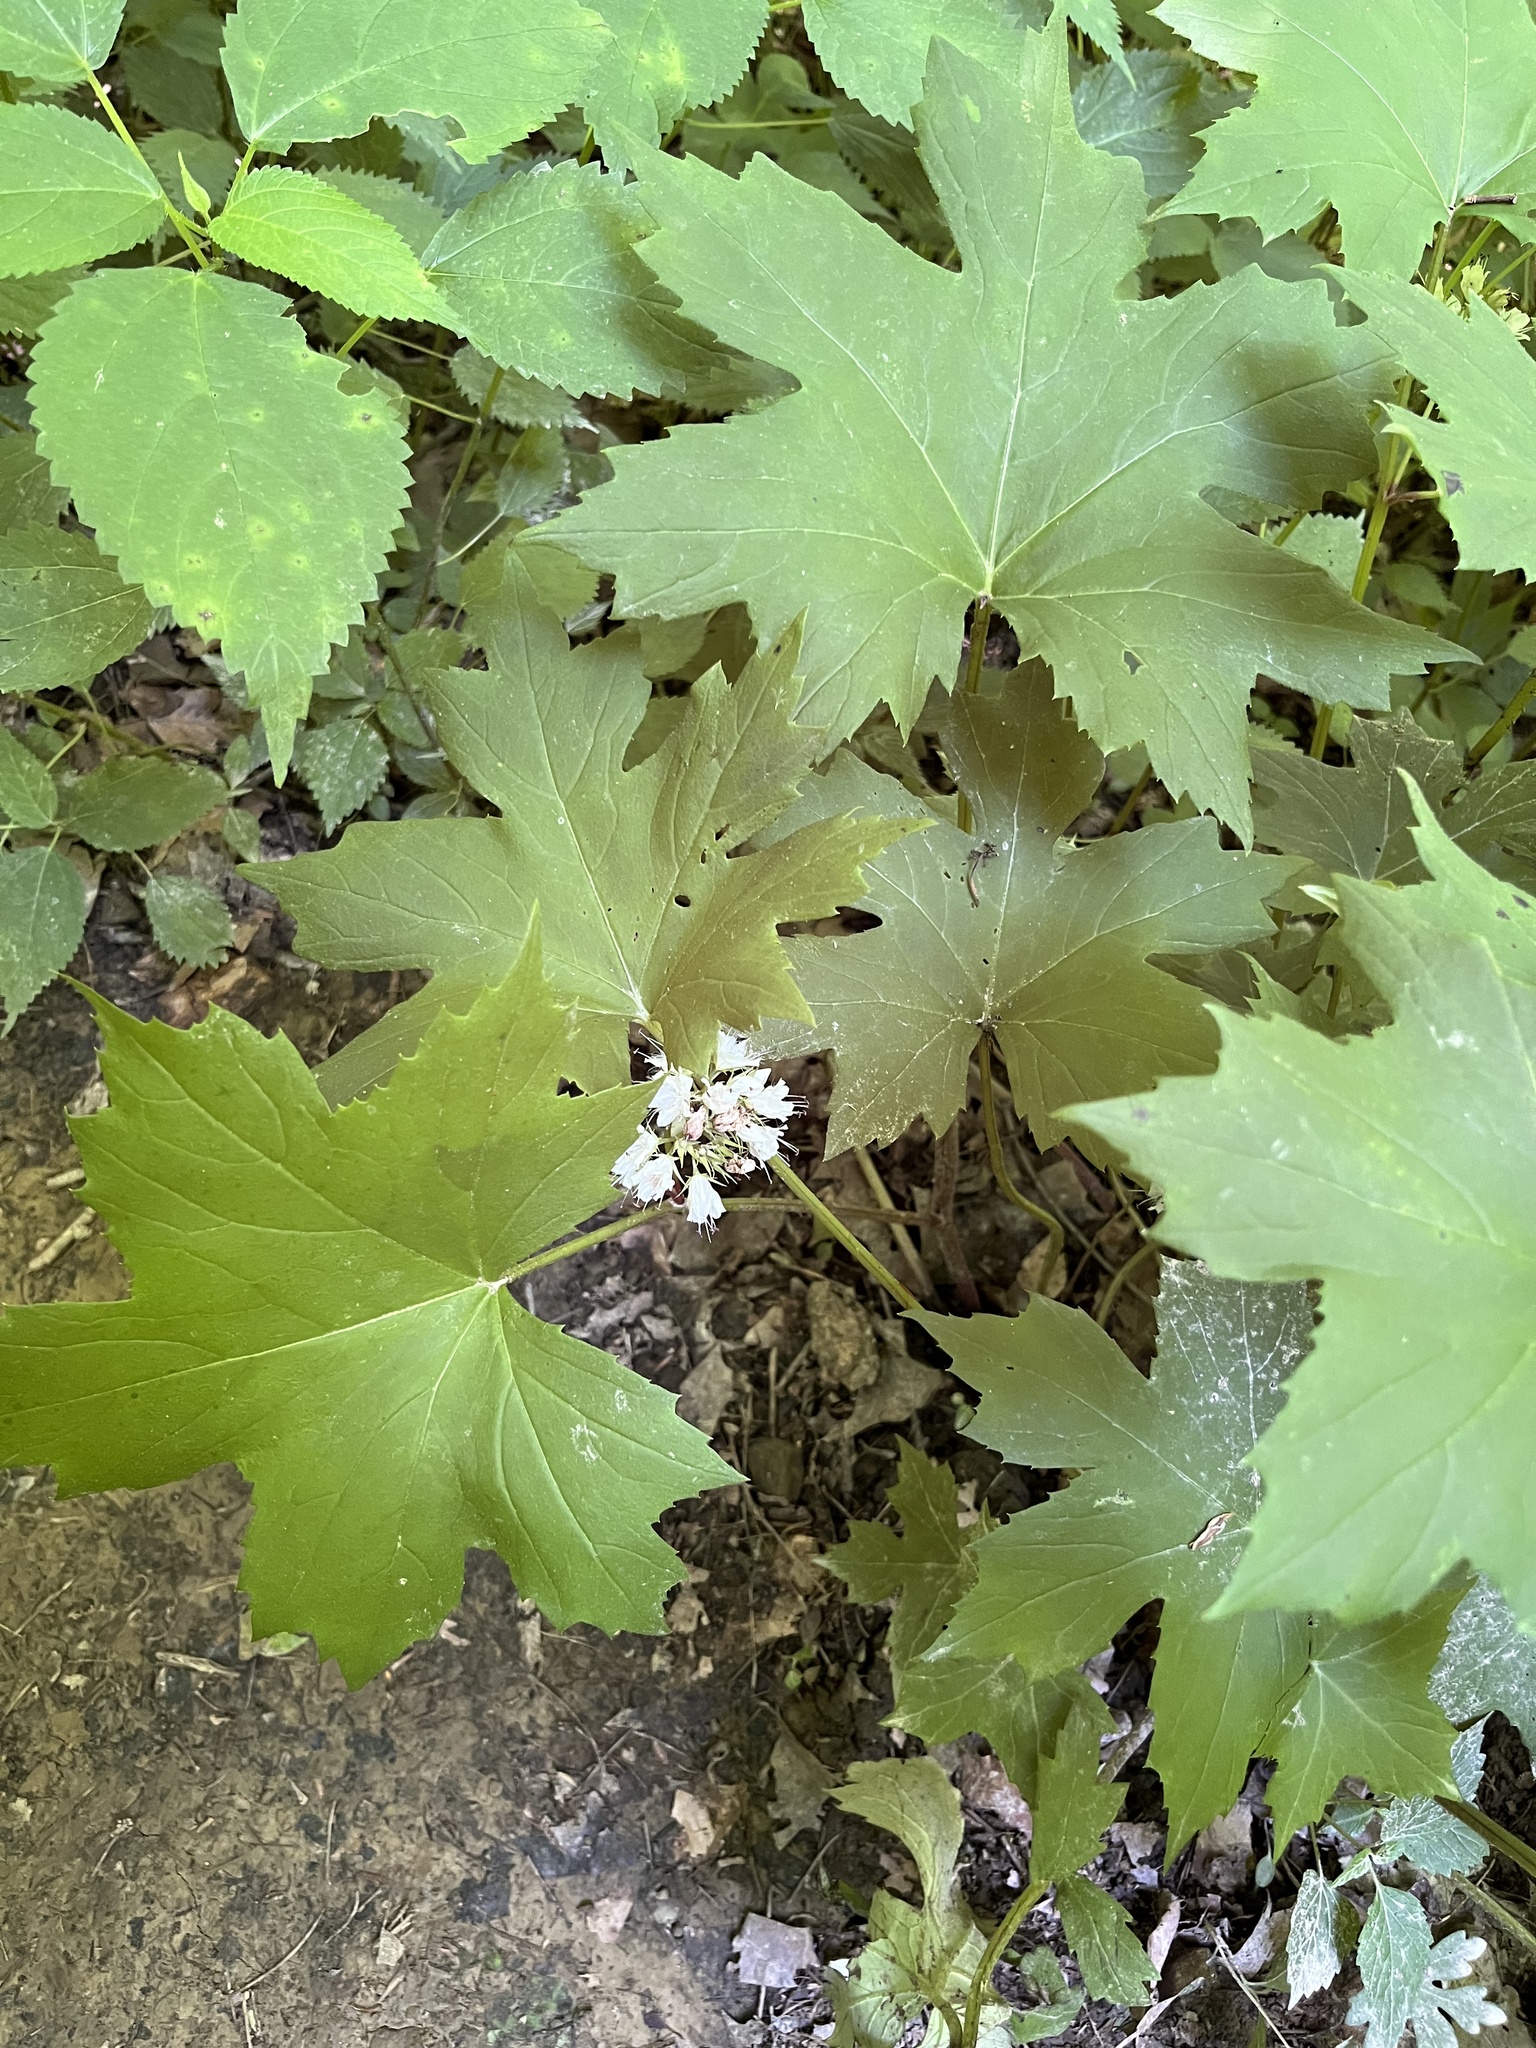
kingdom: Plantae
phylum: Tracheophyta
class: Magnoliopsida
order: Boraginales
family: Hydrophyllaceae
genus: Hydrophyllum
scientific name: Hydrophyllum canadense
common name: Canada waterleaf
